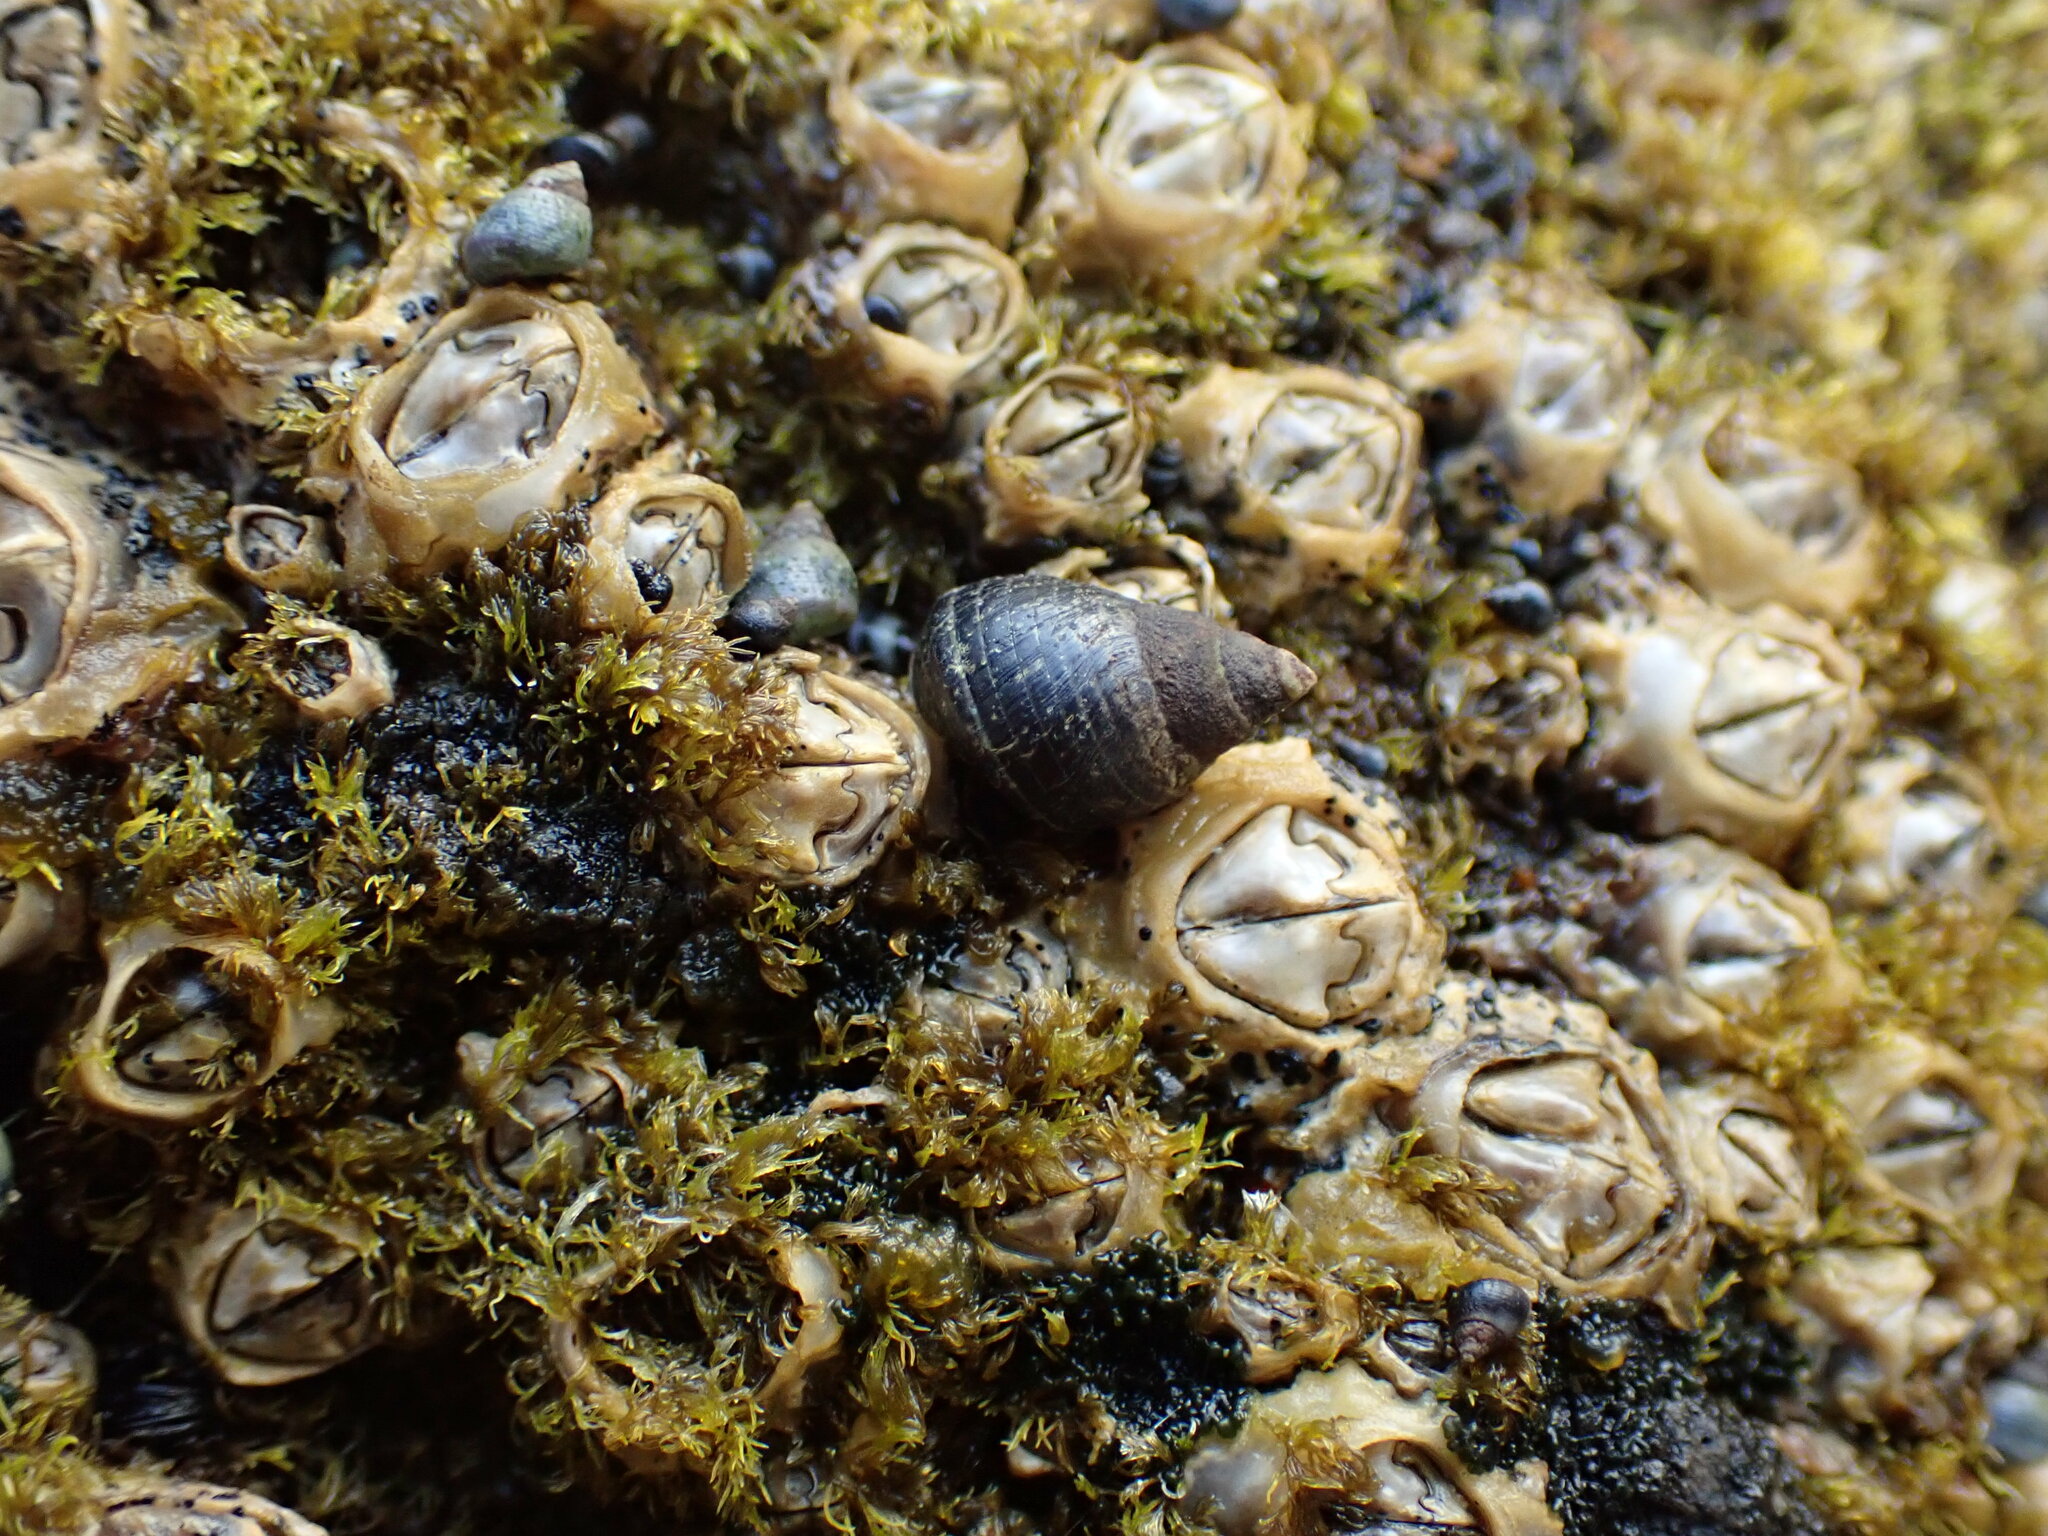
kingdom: Animalia
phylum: Mollusca
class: Gastropoda
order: Littorinimorpha
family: Littorinidae
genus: Austrolittorina
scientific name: Austrolittorina cincta
